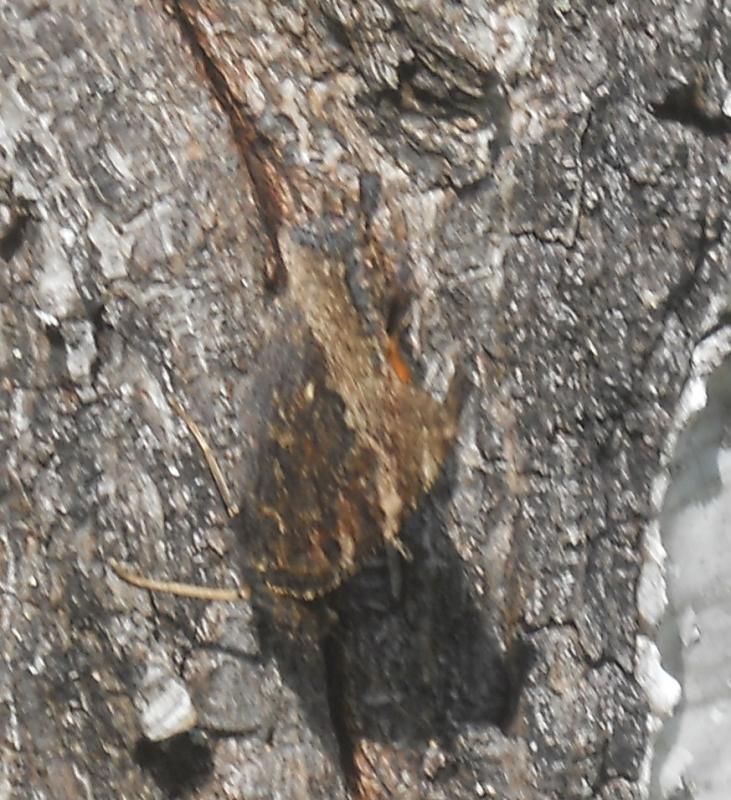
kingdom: Animalia
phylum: Arthropoda
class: Insecta
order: Lepidoptera
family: Nymphalidae
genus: Nymphalis
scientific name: Nymphalis xanthomelas
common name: Scarce tortoiseshell
